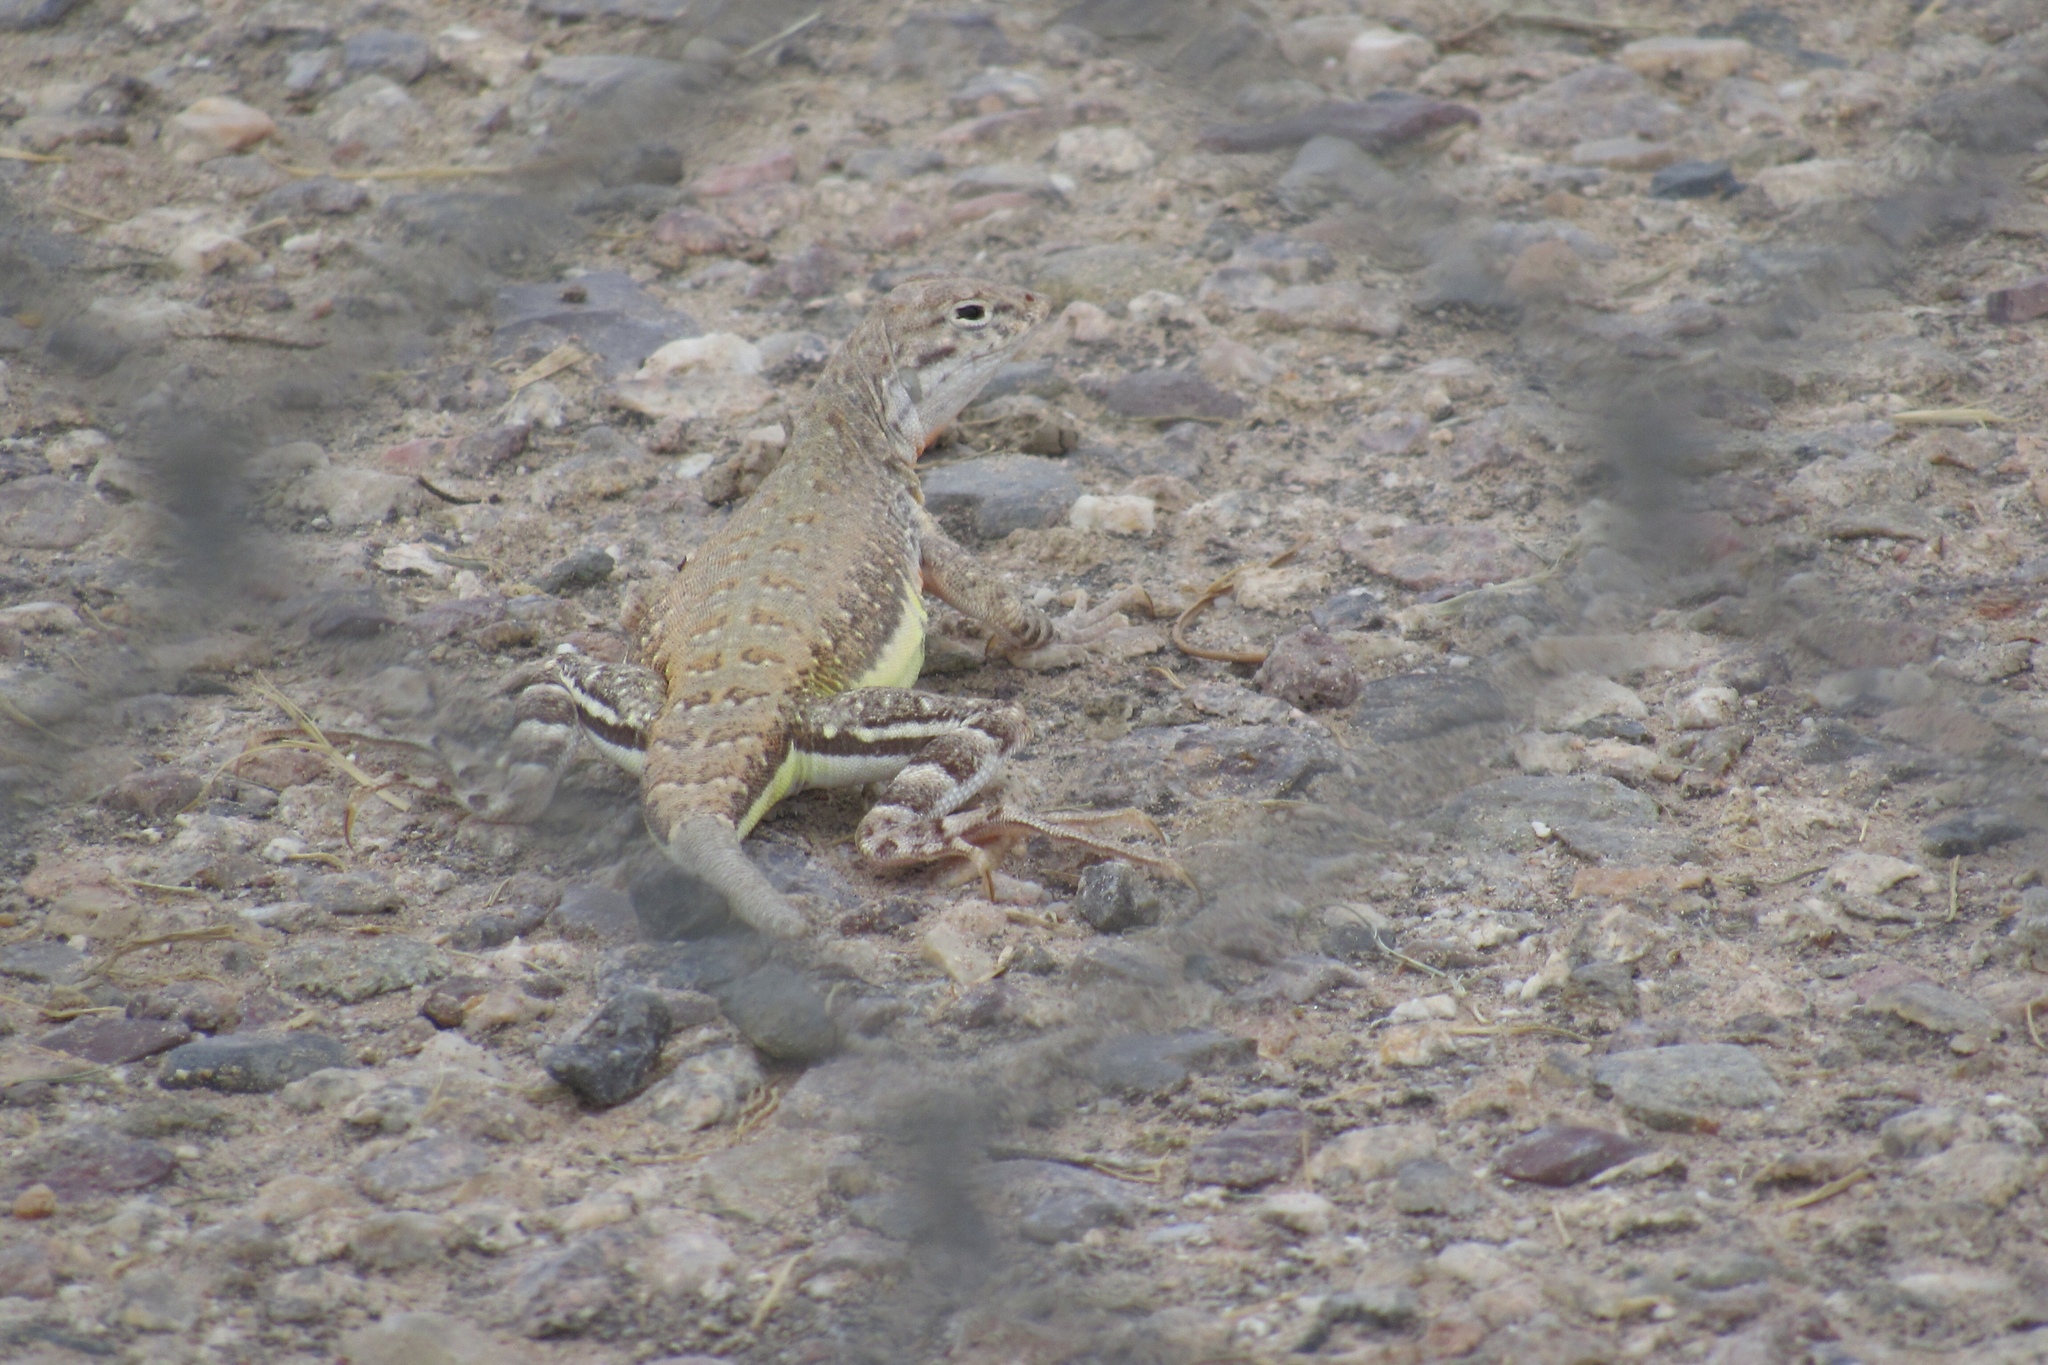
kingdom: Animalia
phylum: Chordata
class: Squamata
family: Phrynosomatidae
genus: Callisaurus
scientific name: Callisaurus draconoides
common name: Zebra-tailed lizard
